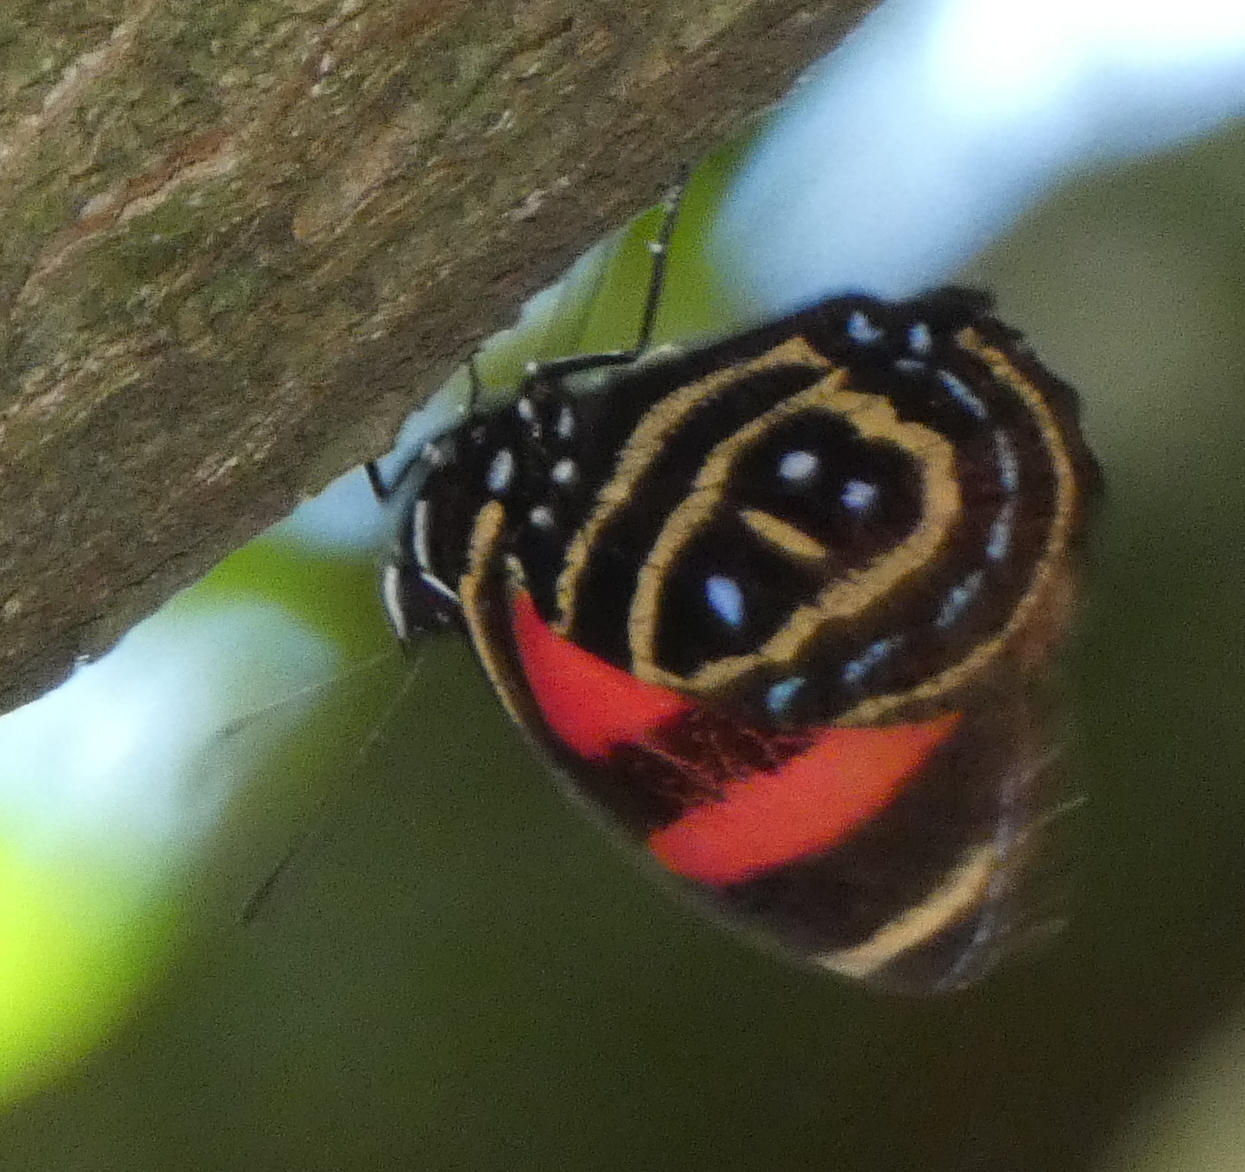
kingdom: Animalia
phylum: Arthropoda
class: Insecta
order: Lepidoptera
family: Nymphalidae
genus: Catagramma
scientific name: Catagramma astarte
